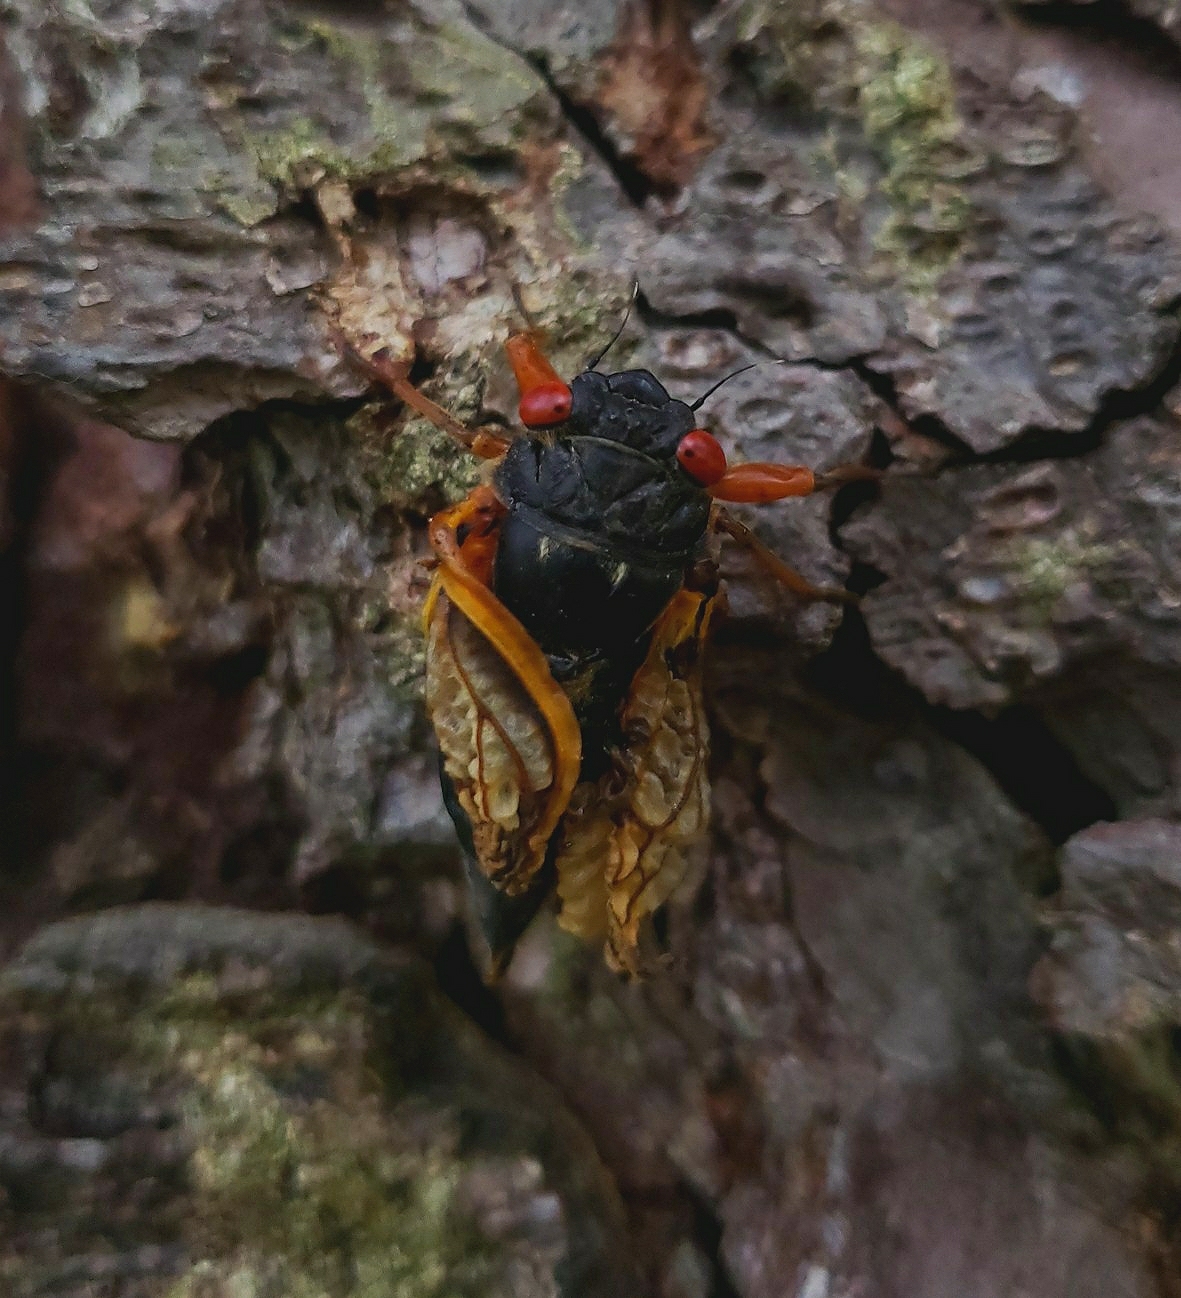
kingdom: Animalia
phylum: Arthropoda
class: Insecta
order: Hemiptera
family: Cicadidae
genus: Magicicada
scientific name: Magicicada
